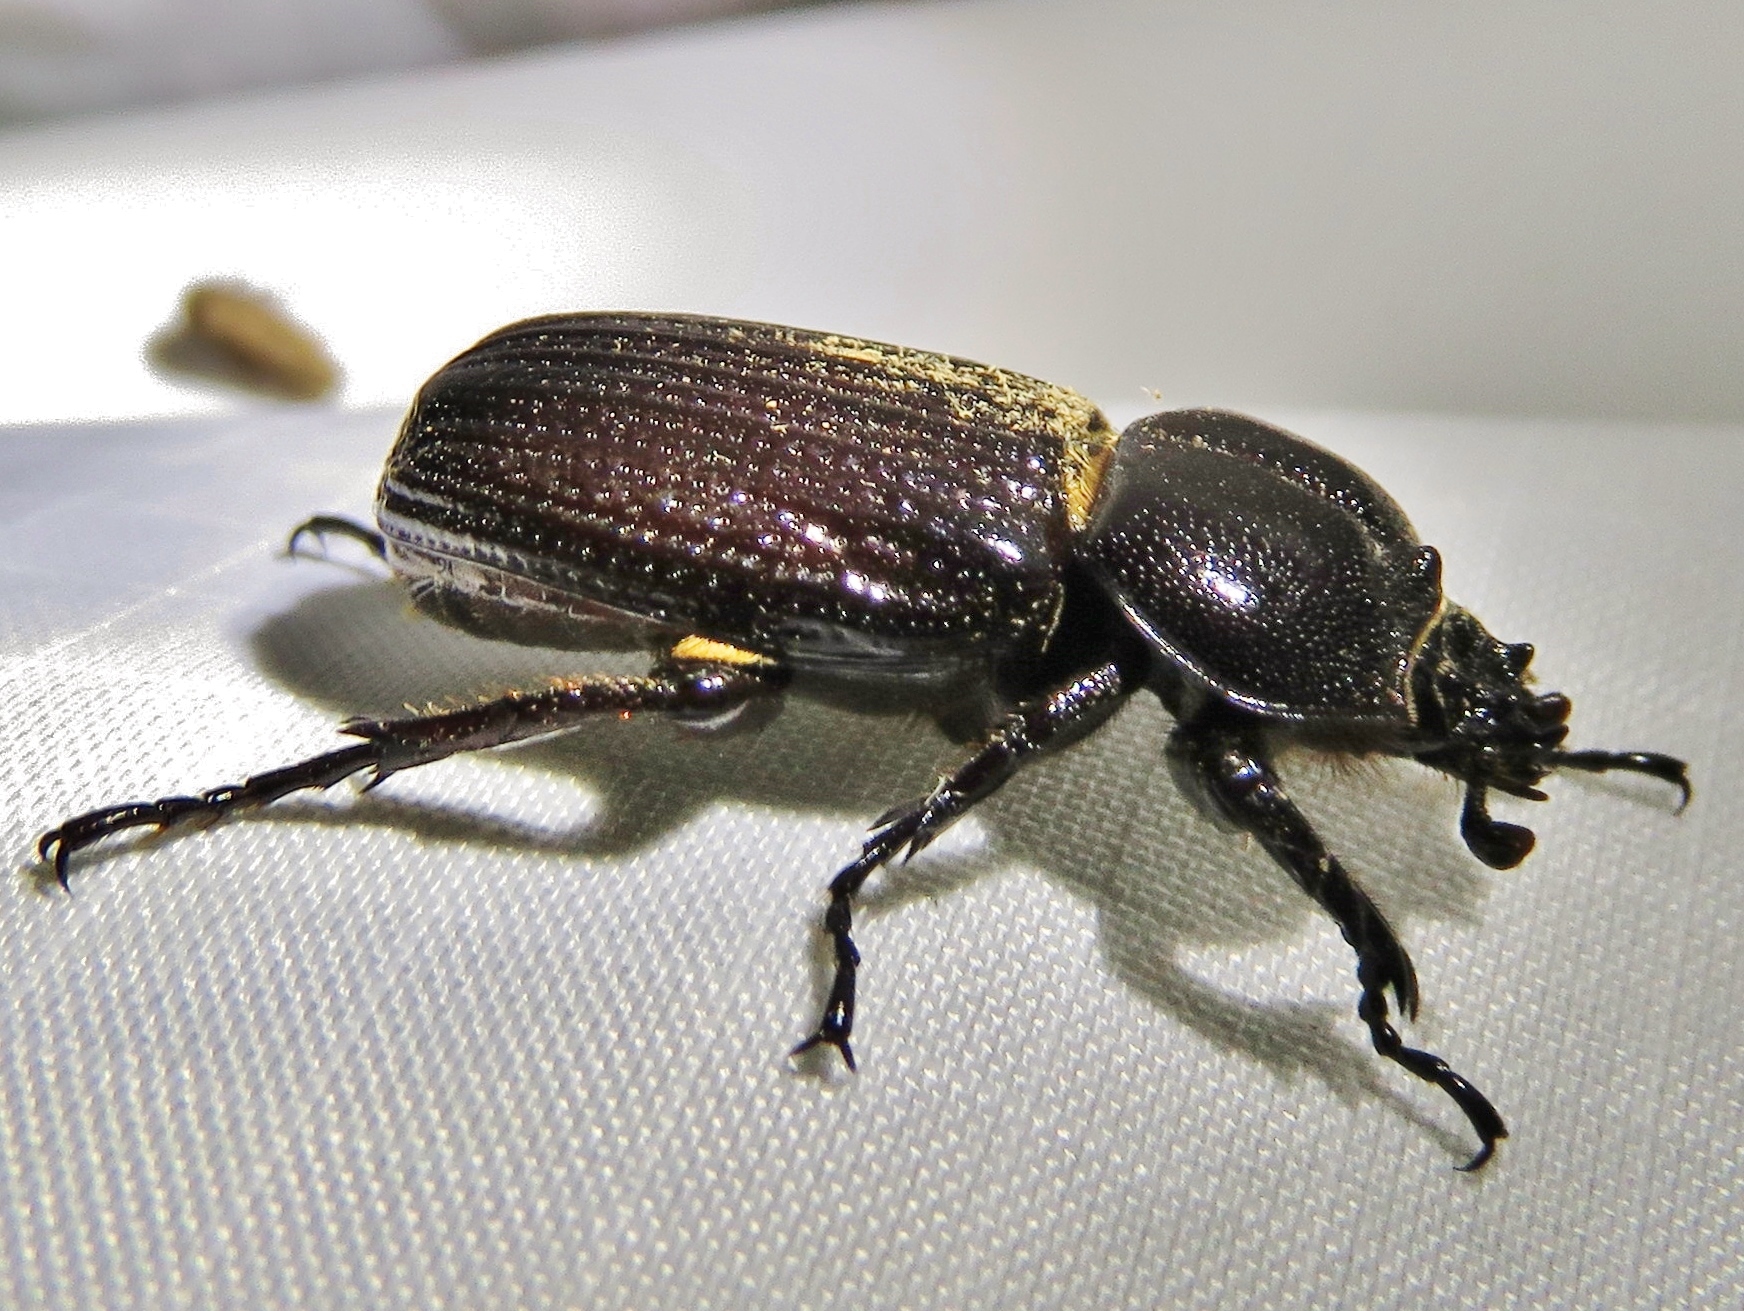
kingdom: Animalia
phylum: Arthropoda
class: Insecta
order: Coleoptera
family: Scarabaeidae
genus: Phileurus
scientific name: Phileurus valgus
